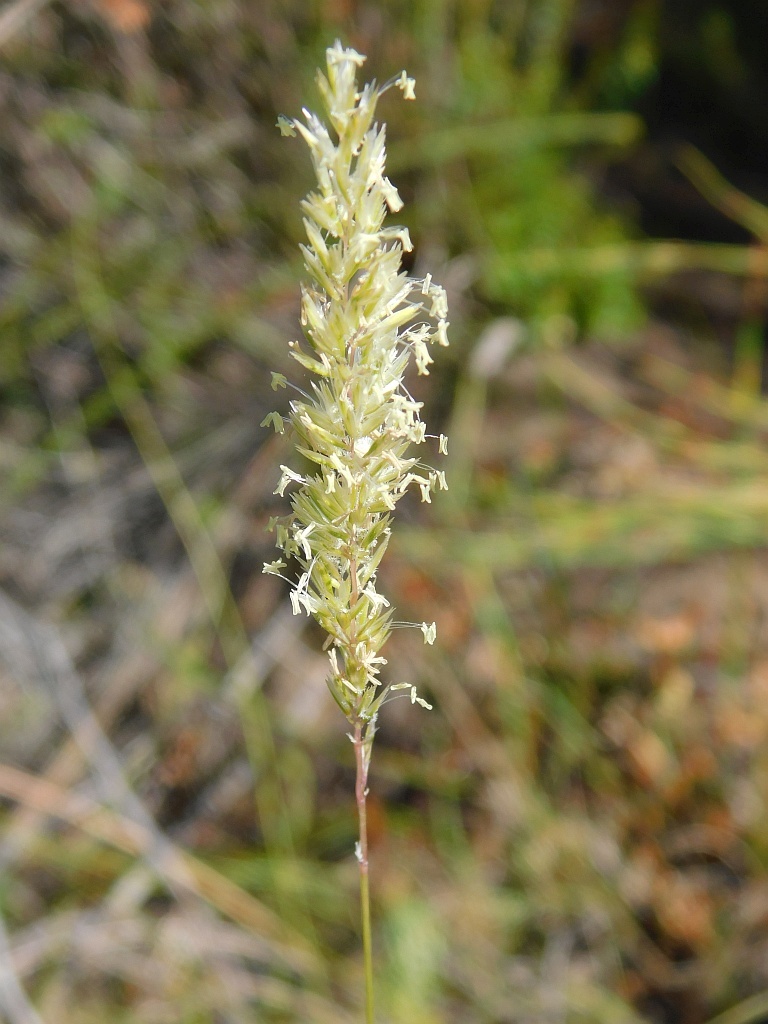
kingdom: Plantae
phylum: Tracheophyta
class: Liliopsida
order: Poales
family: Poaceae
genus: Koeleria
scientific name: Koeleria capensis
